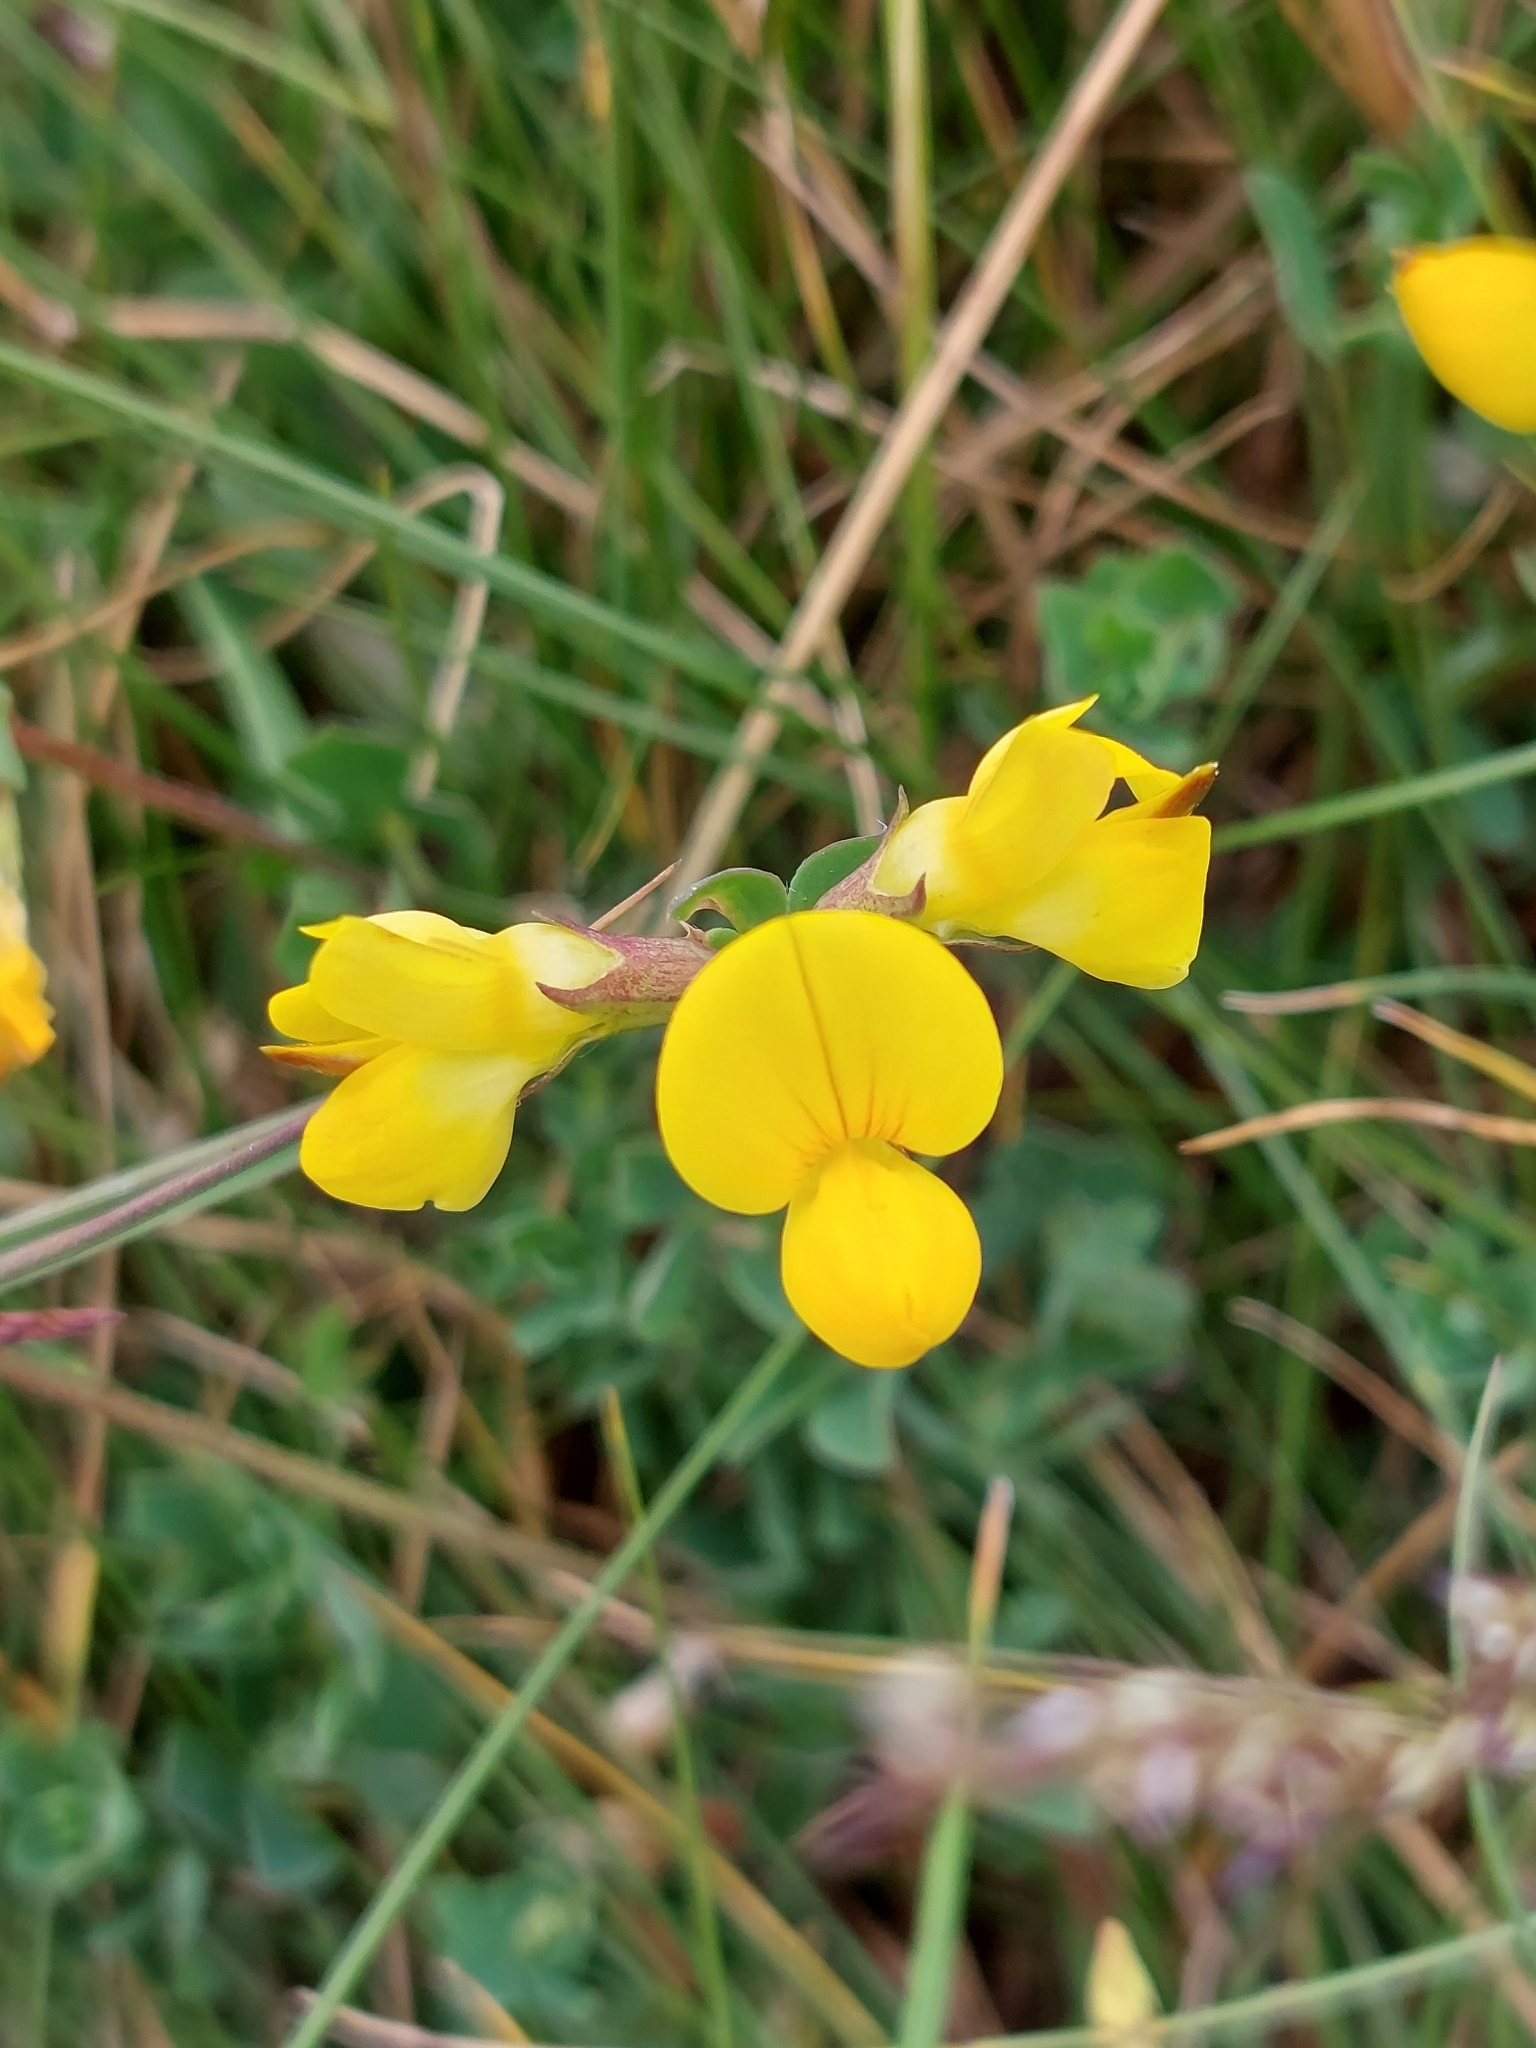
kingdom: Plantae
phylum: Tracheophyta
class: Magnoliopsida
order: Fabales
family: Fabaceae
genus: Lotus
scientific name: Lotus corniculatus
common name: Common bird's-foot-trefoil
